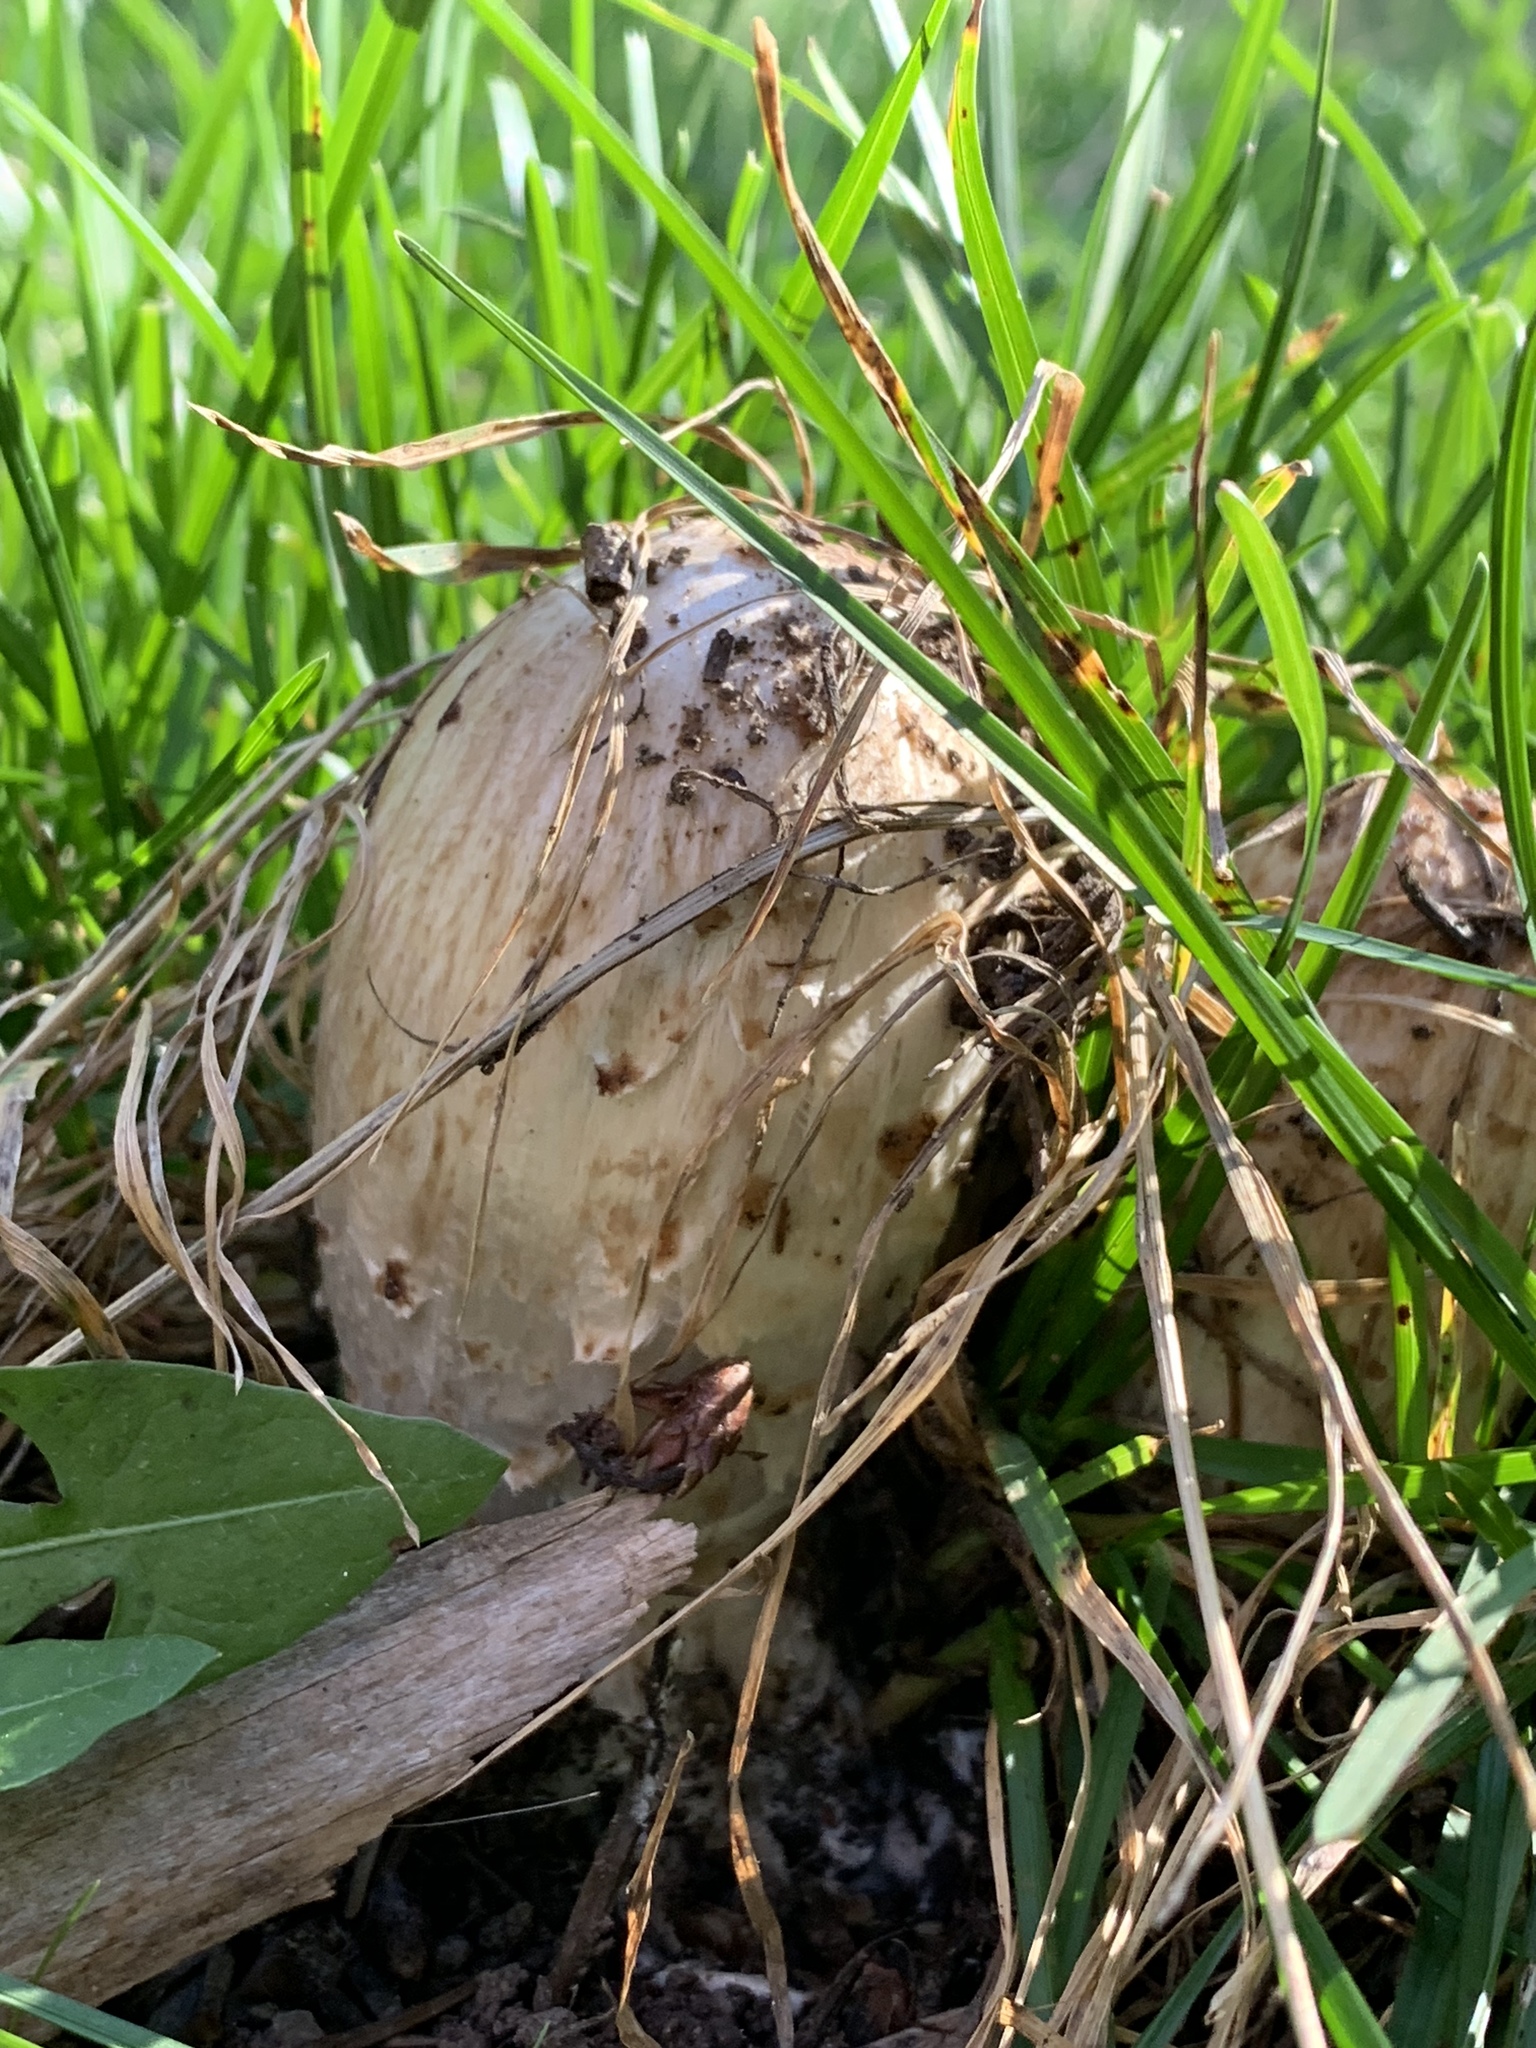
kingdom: Fungi
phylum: Basidiomycota
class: Agaricomycetes
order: Agaricales
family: Agaricaceae
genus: Coprinus
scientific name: Coprinus comatus
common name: Lawyer's wig
